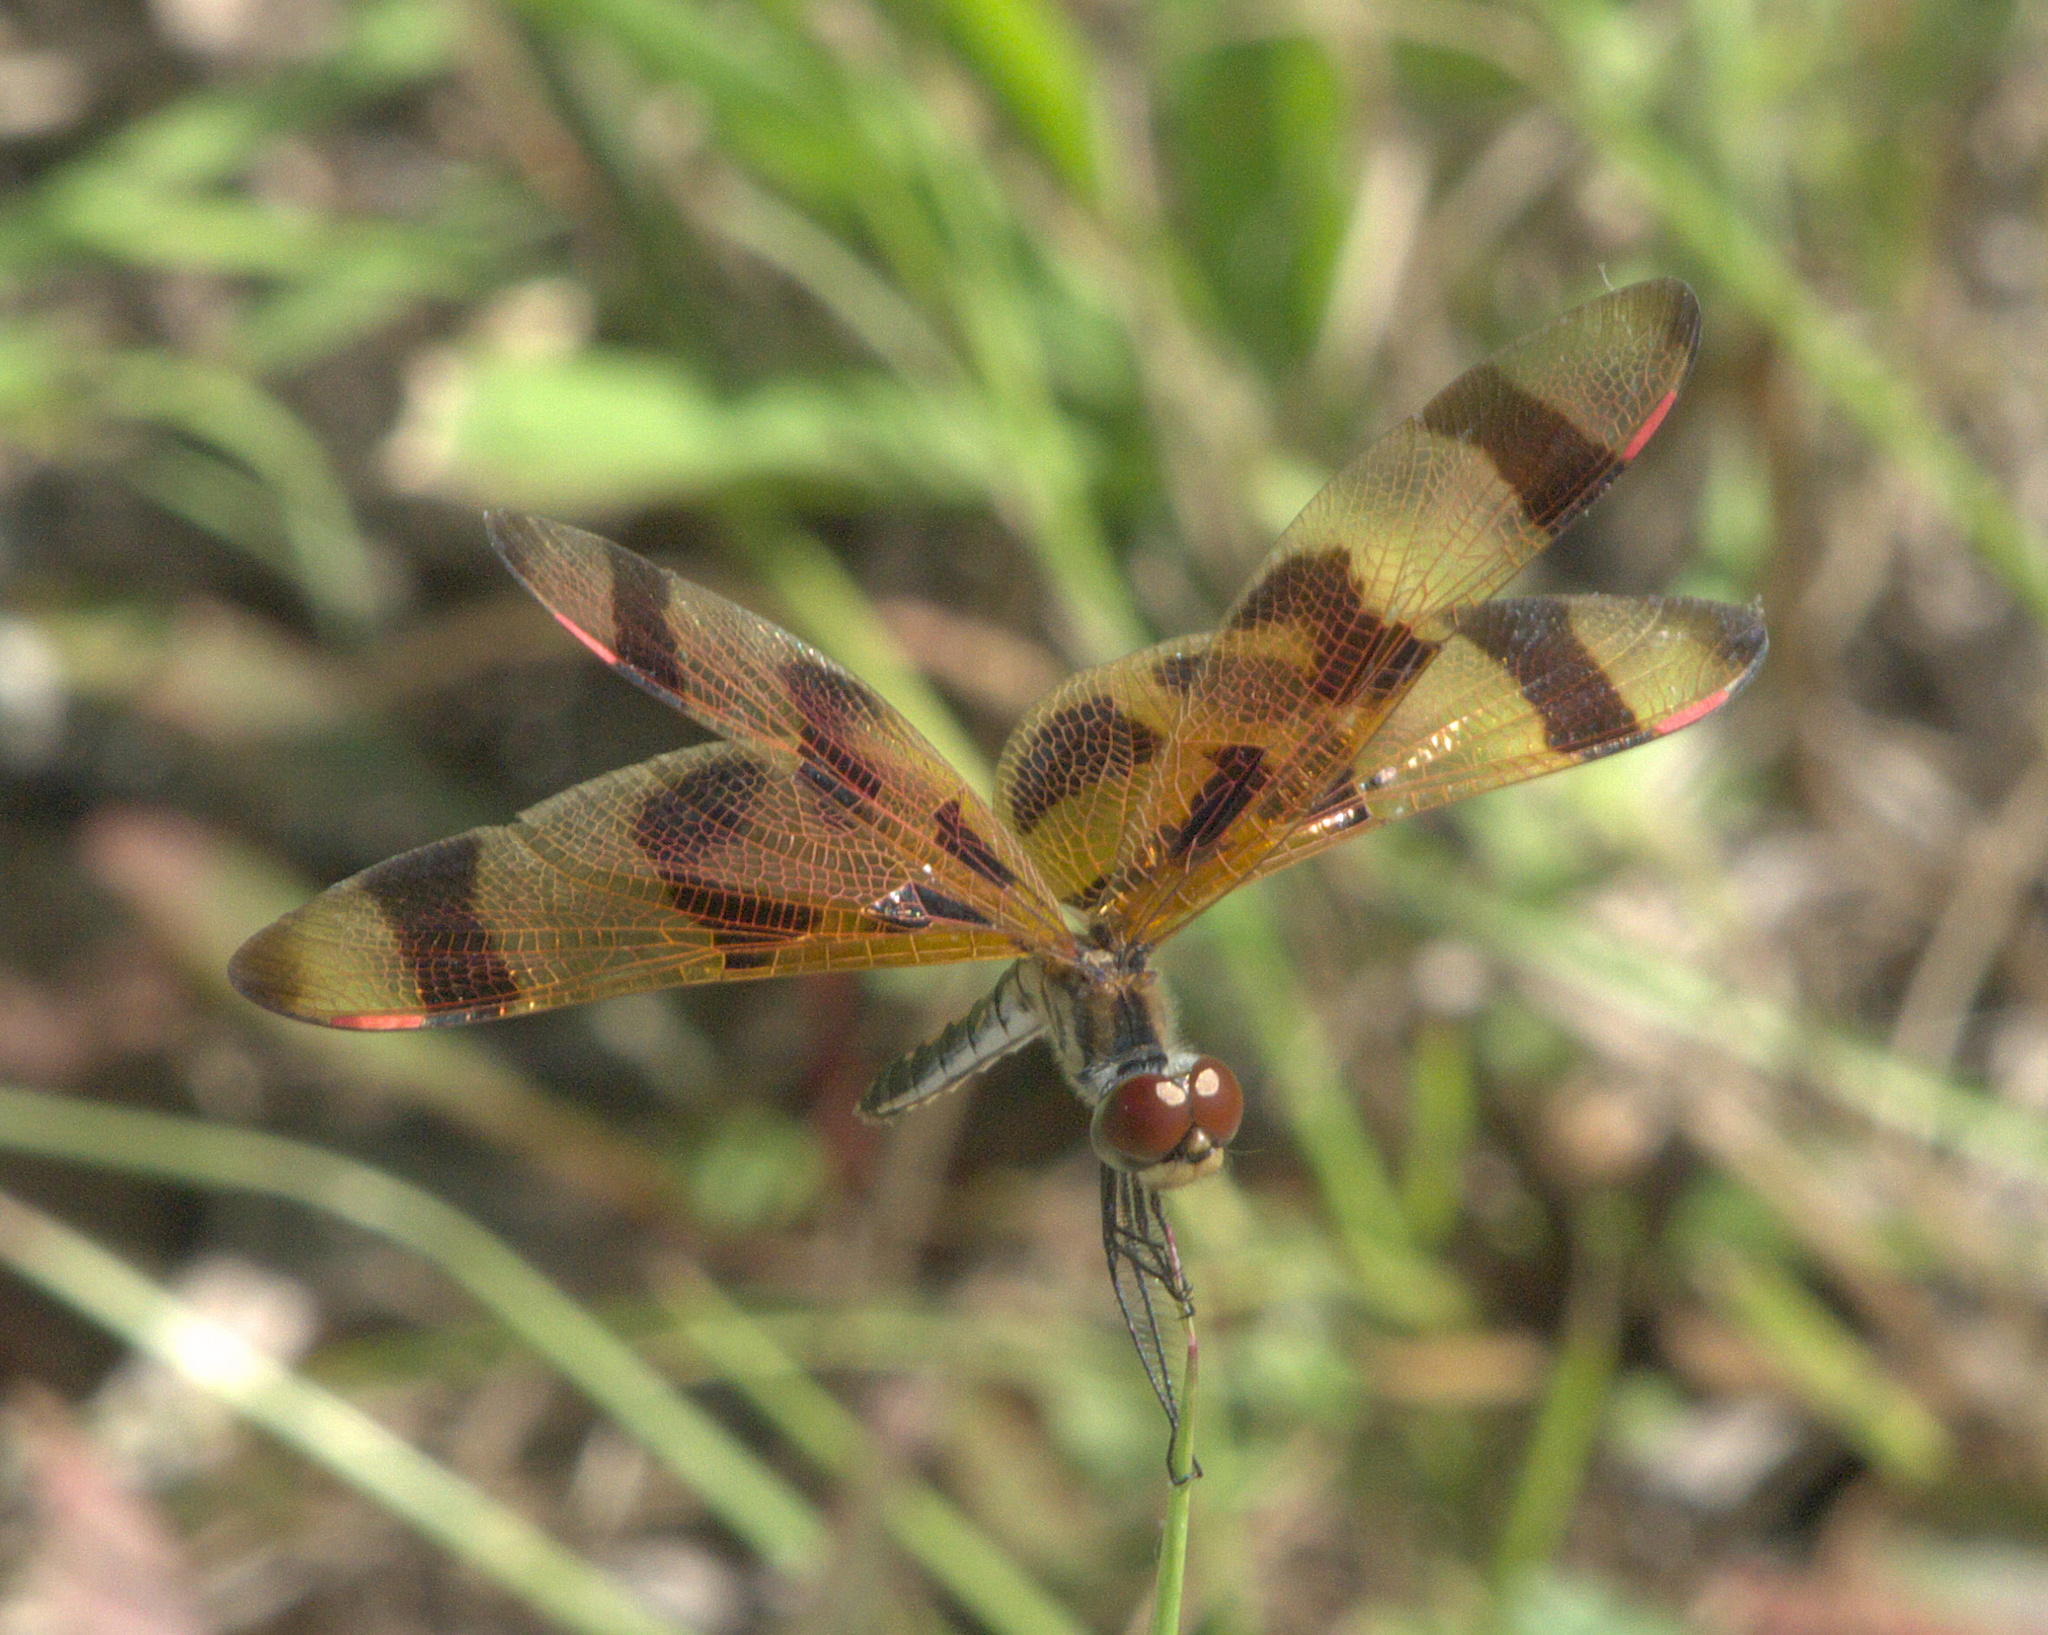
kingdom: Animalia
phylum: Arthropoda
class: Insecta
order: Odonata
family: Libellulidae
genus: Celithemis
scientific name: Celithemis eponina
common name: Halloween pennant
